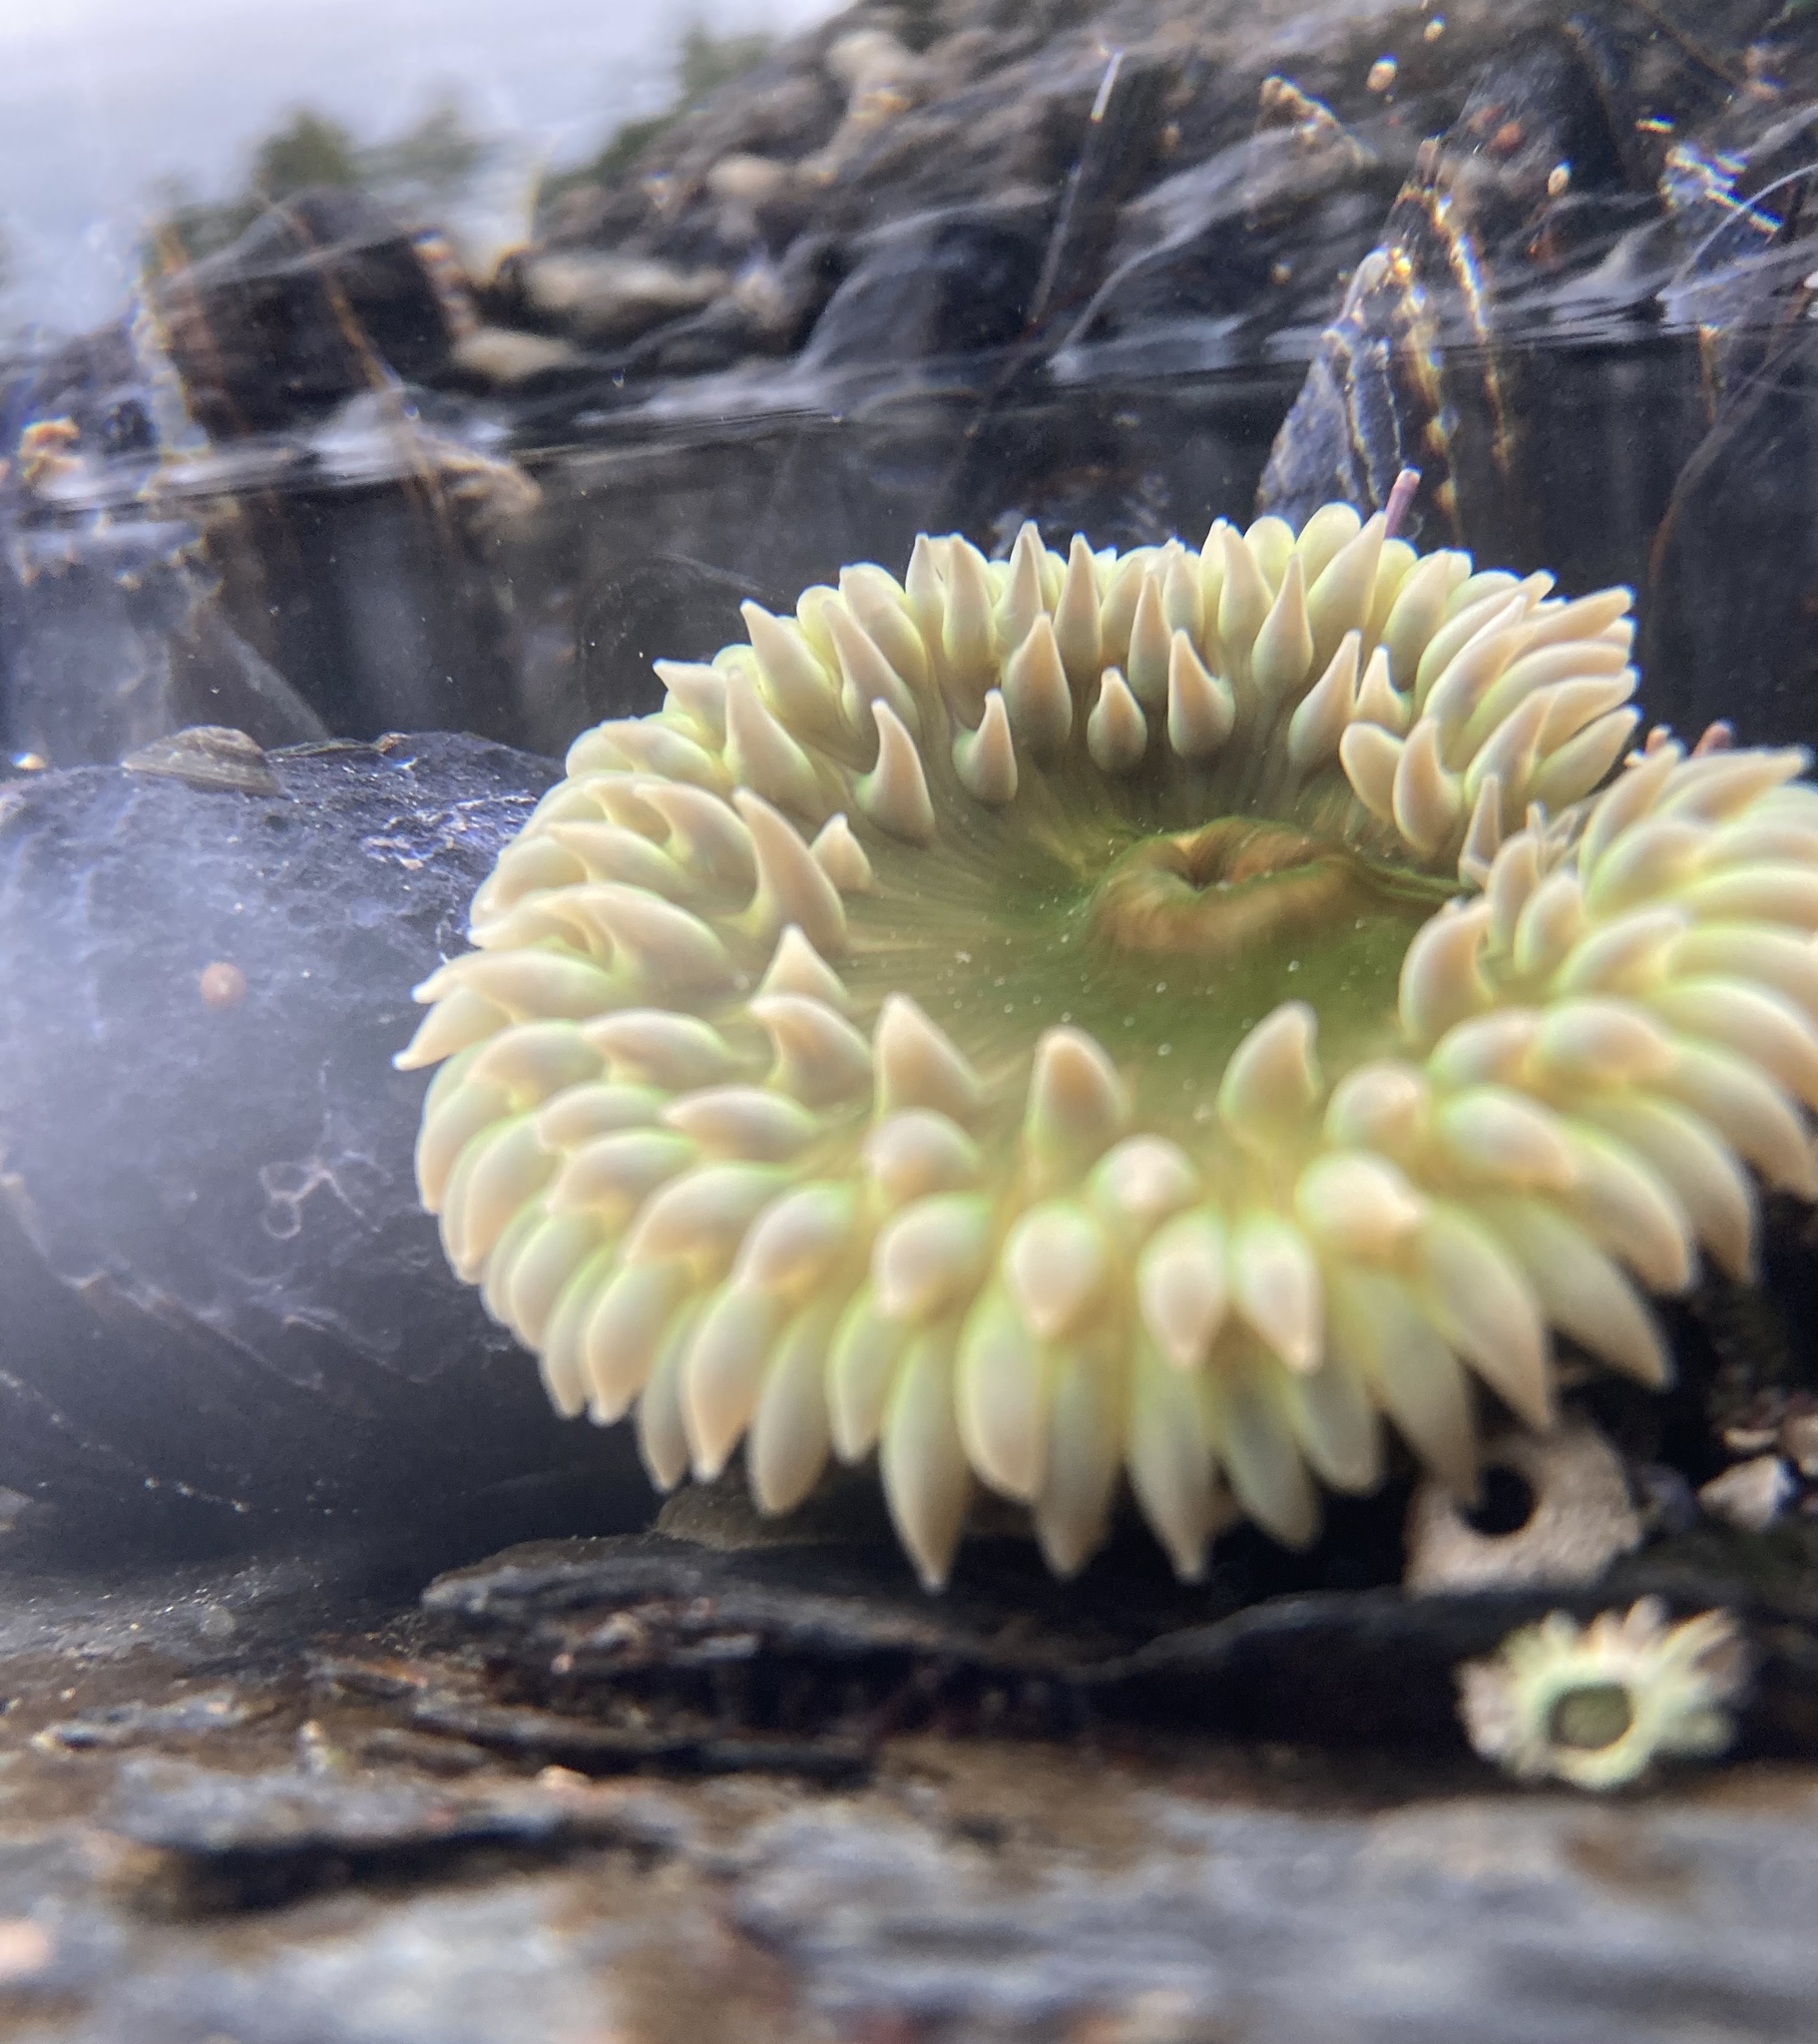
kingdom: Animalia
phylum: Cnidaria
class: Anthozoa
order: Actiniaria
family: Actiniidae
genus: Anthopleura
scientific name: Anthopleura xanthogrammica
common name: Giant green anemone
